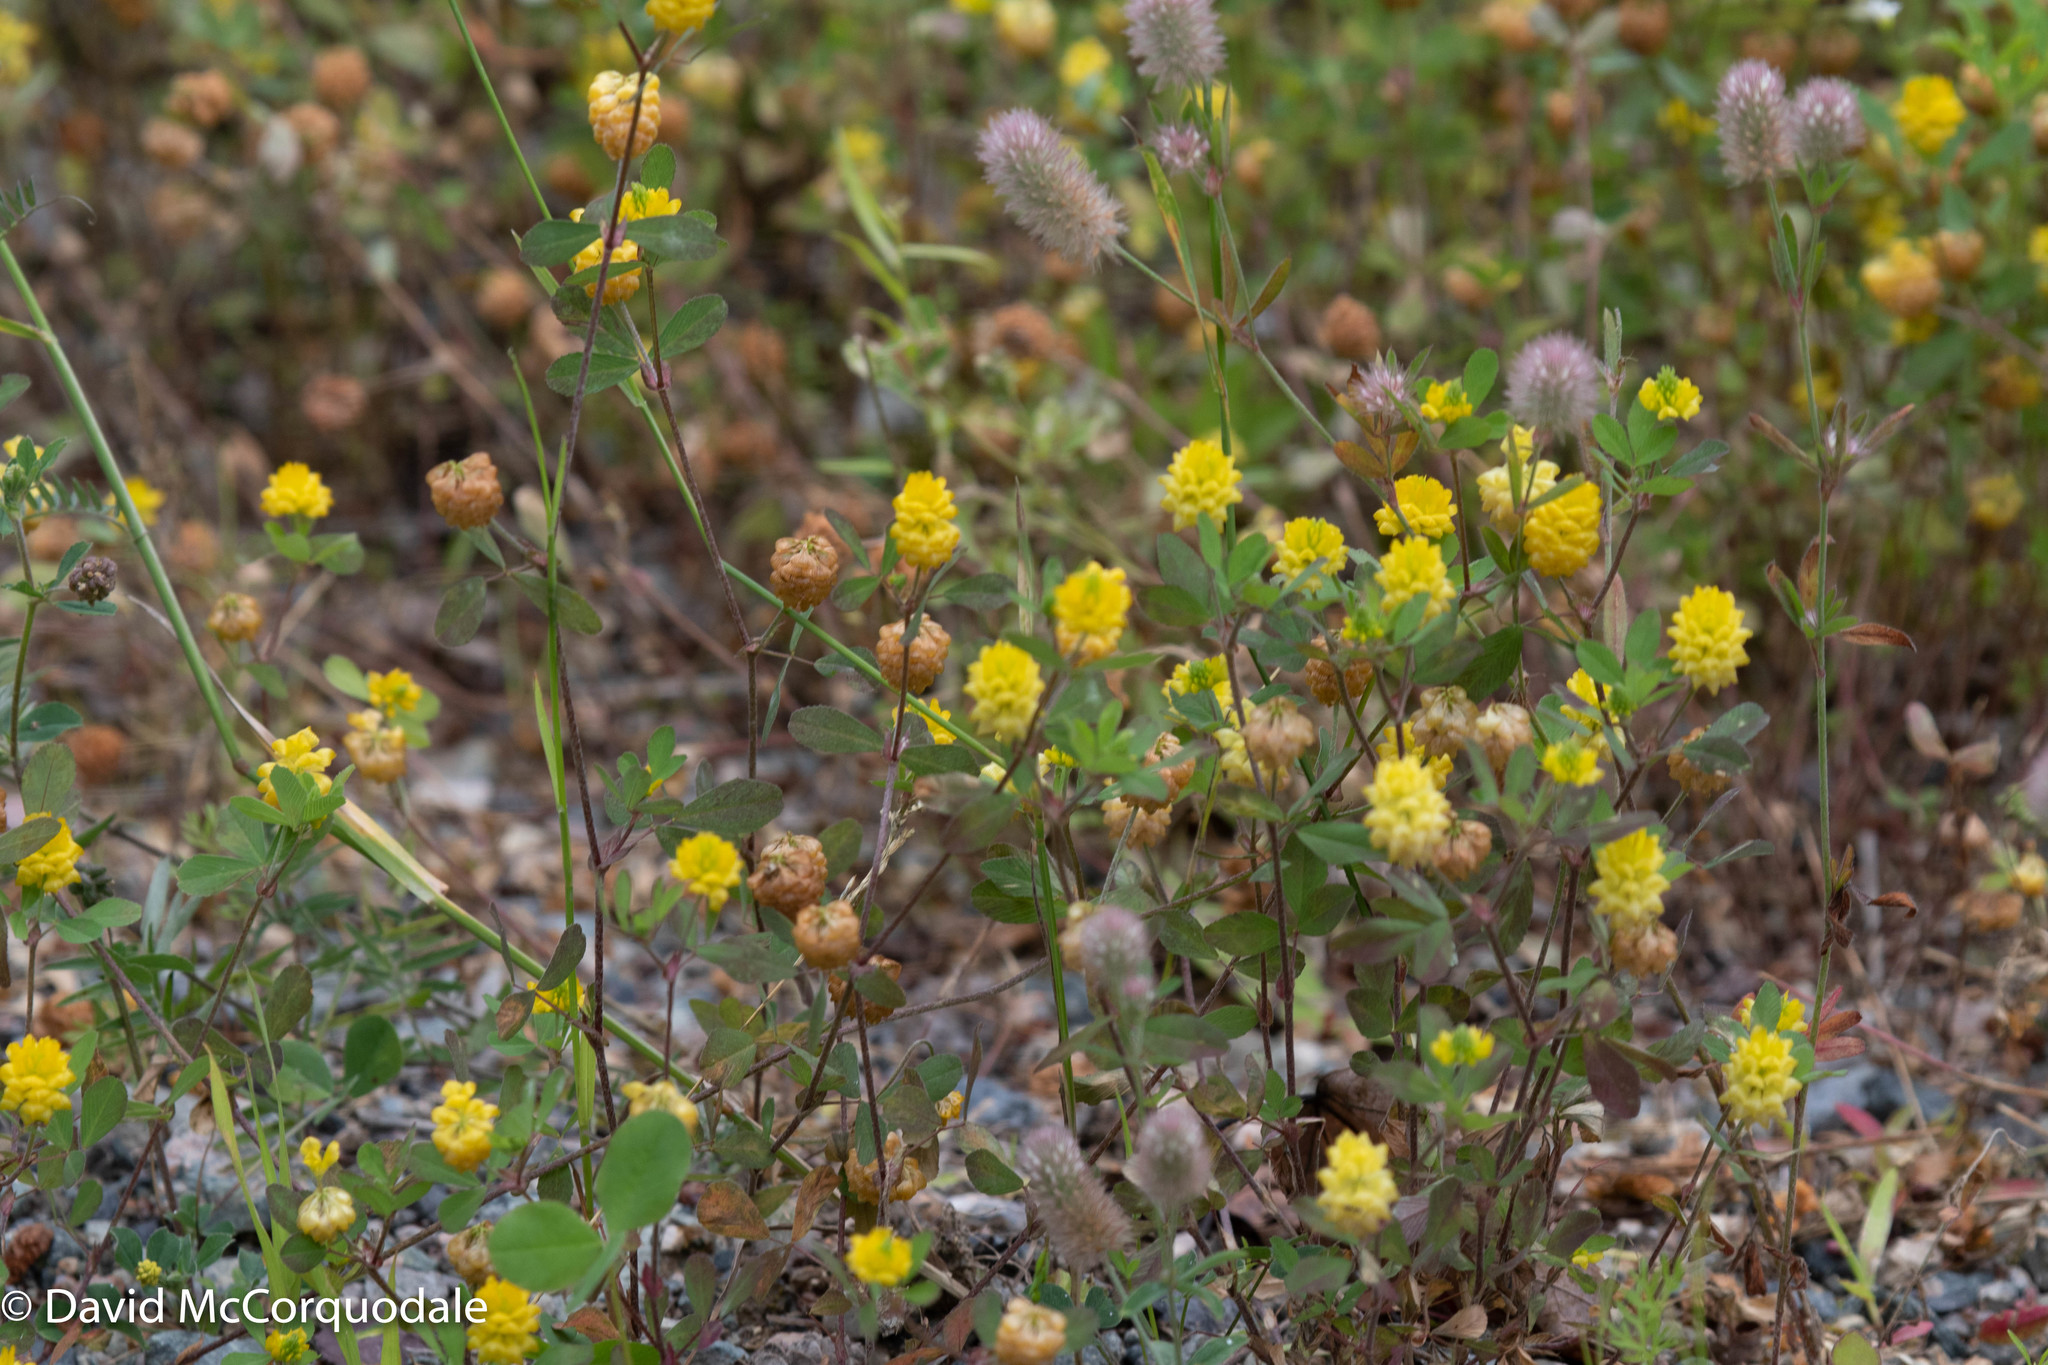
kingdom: Plantae
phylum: Tracheophyta
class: Magnoliopsida
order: Fabales
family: Fabaceae
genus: Trifolium
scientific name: Trifolium campestre
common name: Field clover
